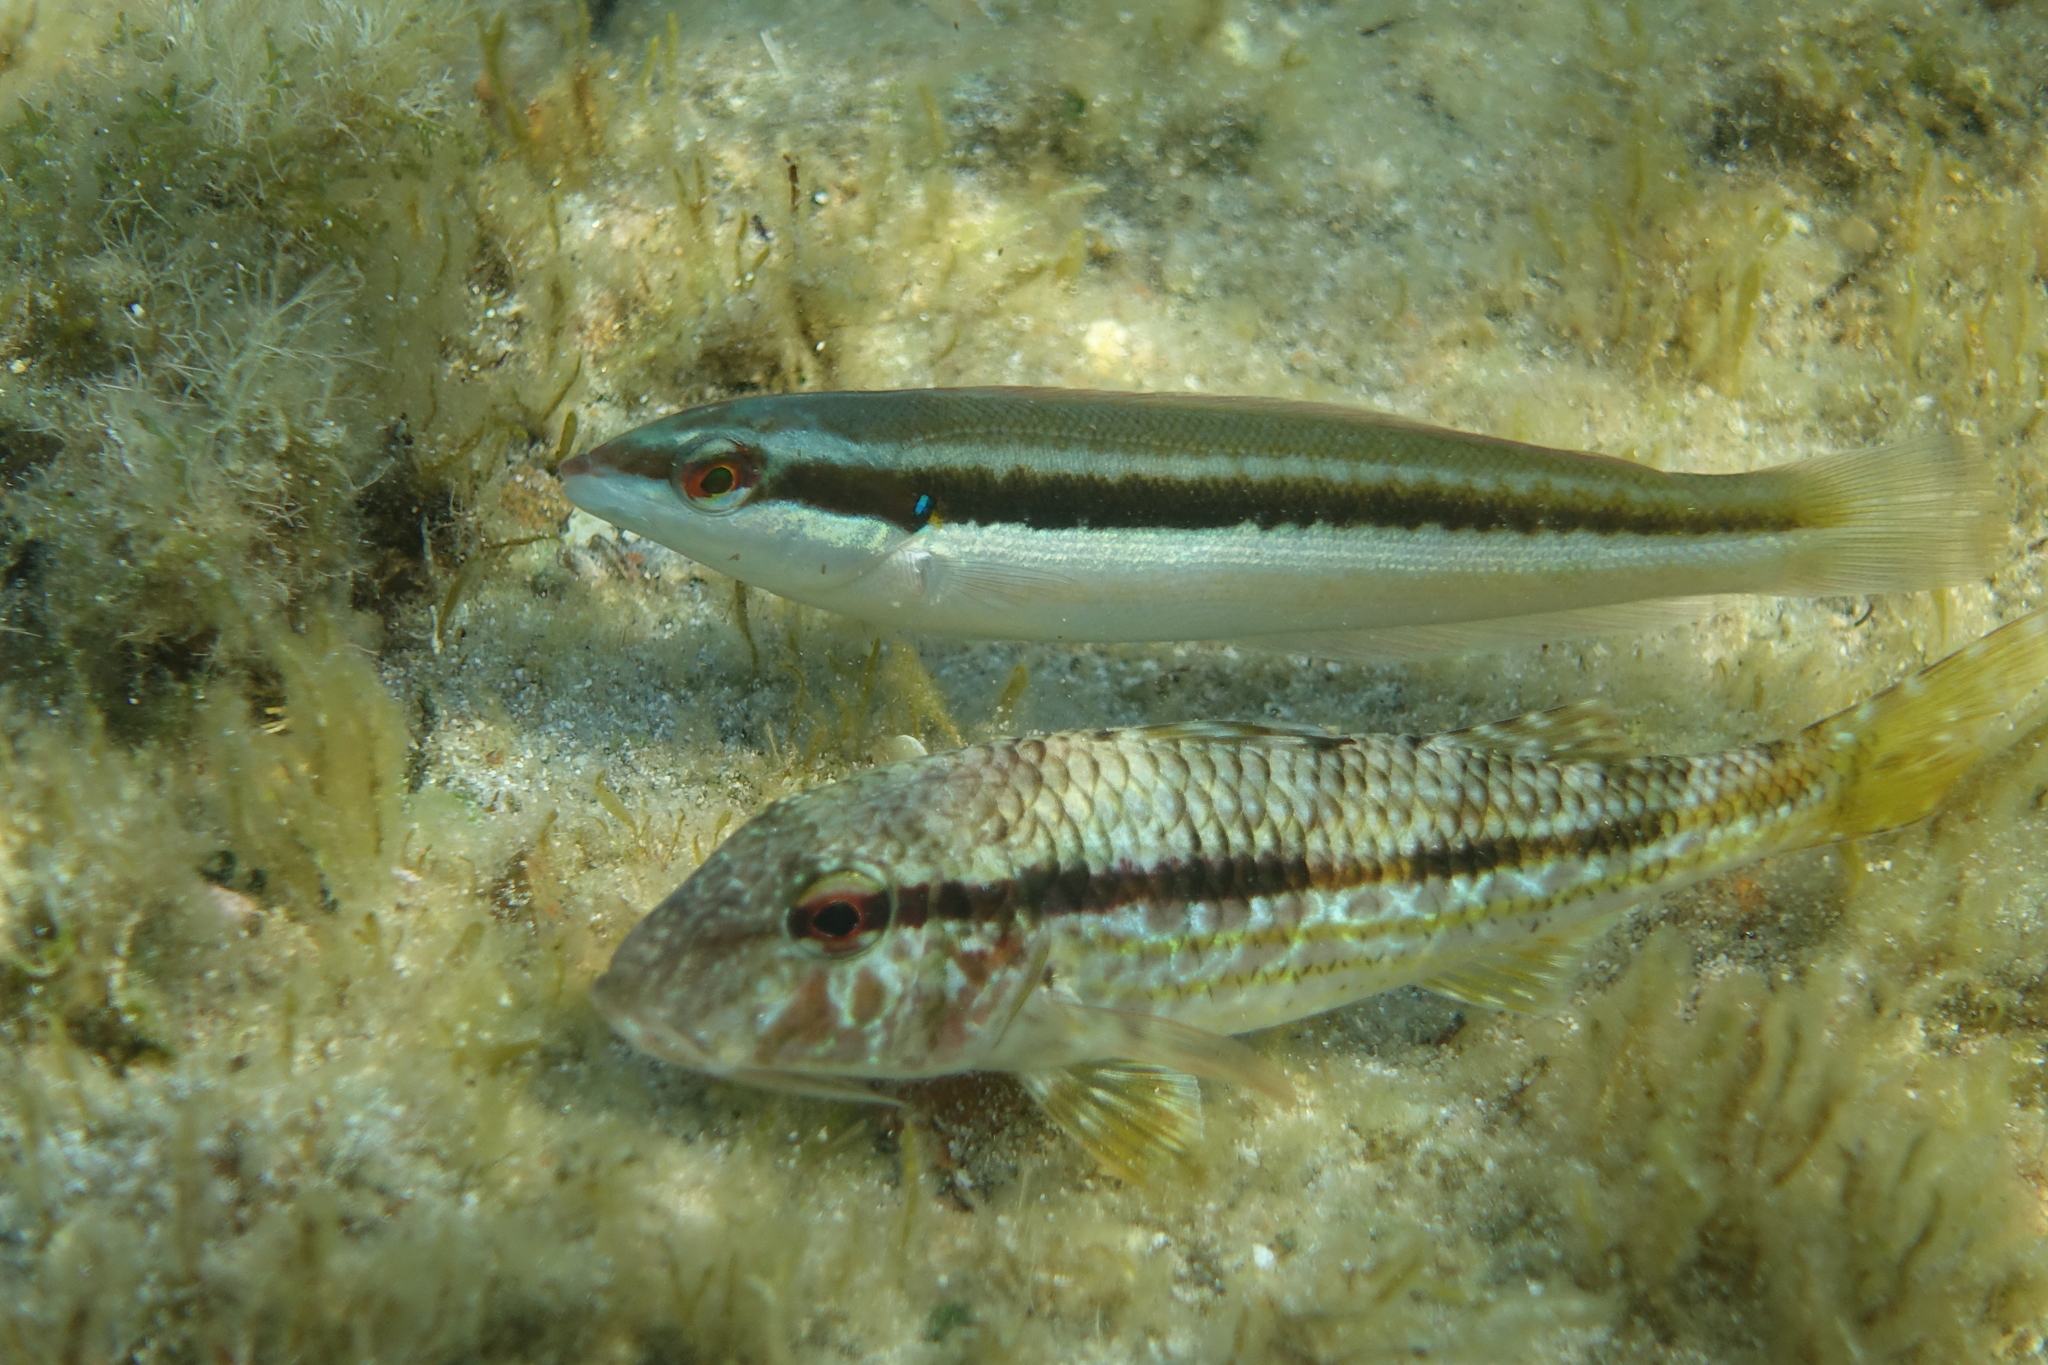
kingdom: Animalia
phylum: Chordata
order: Perciformes
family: Labridae
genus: Coris
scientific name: Coris julis
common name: Rainbow wrasse
